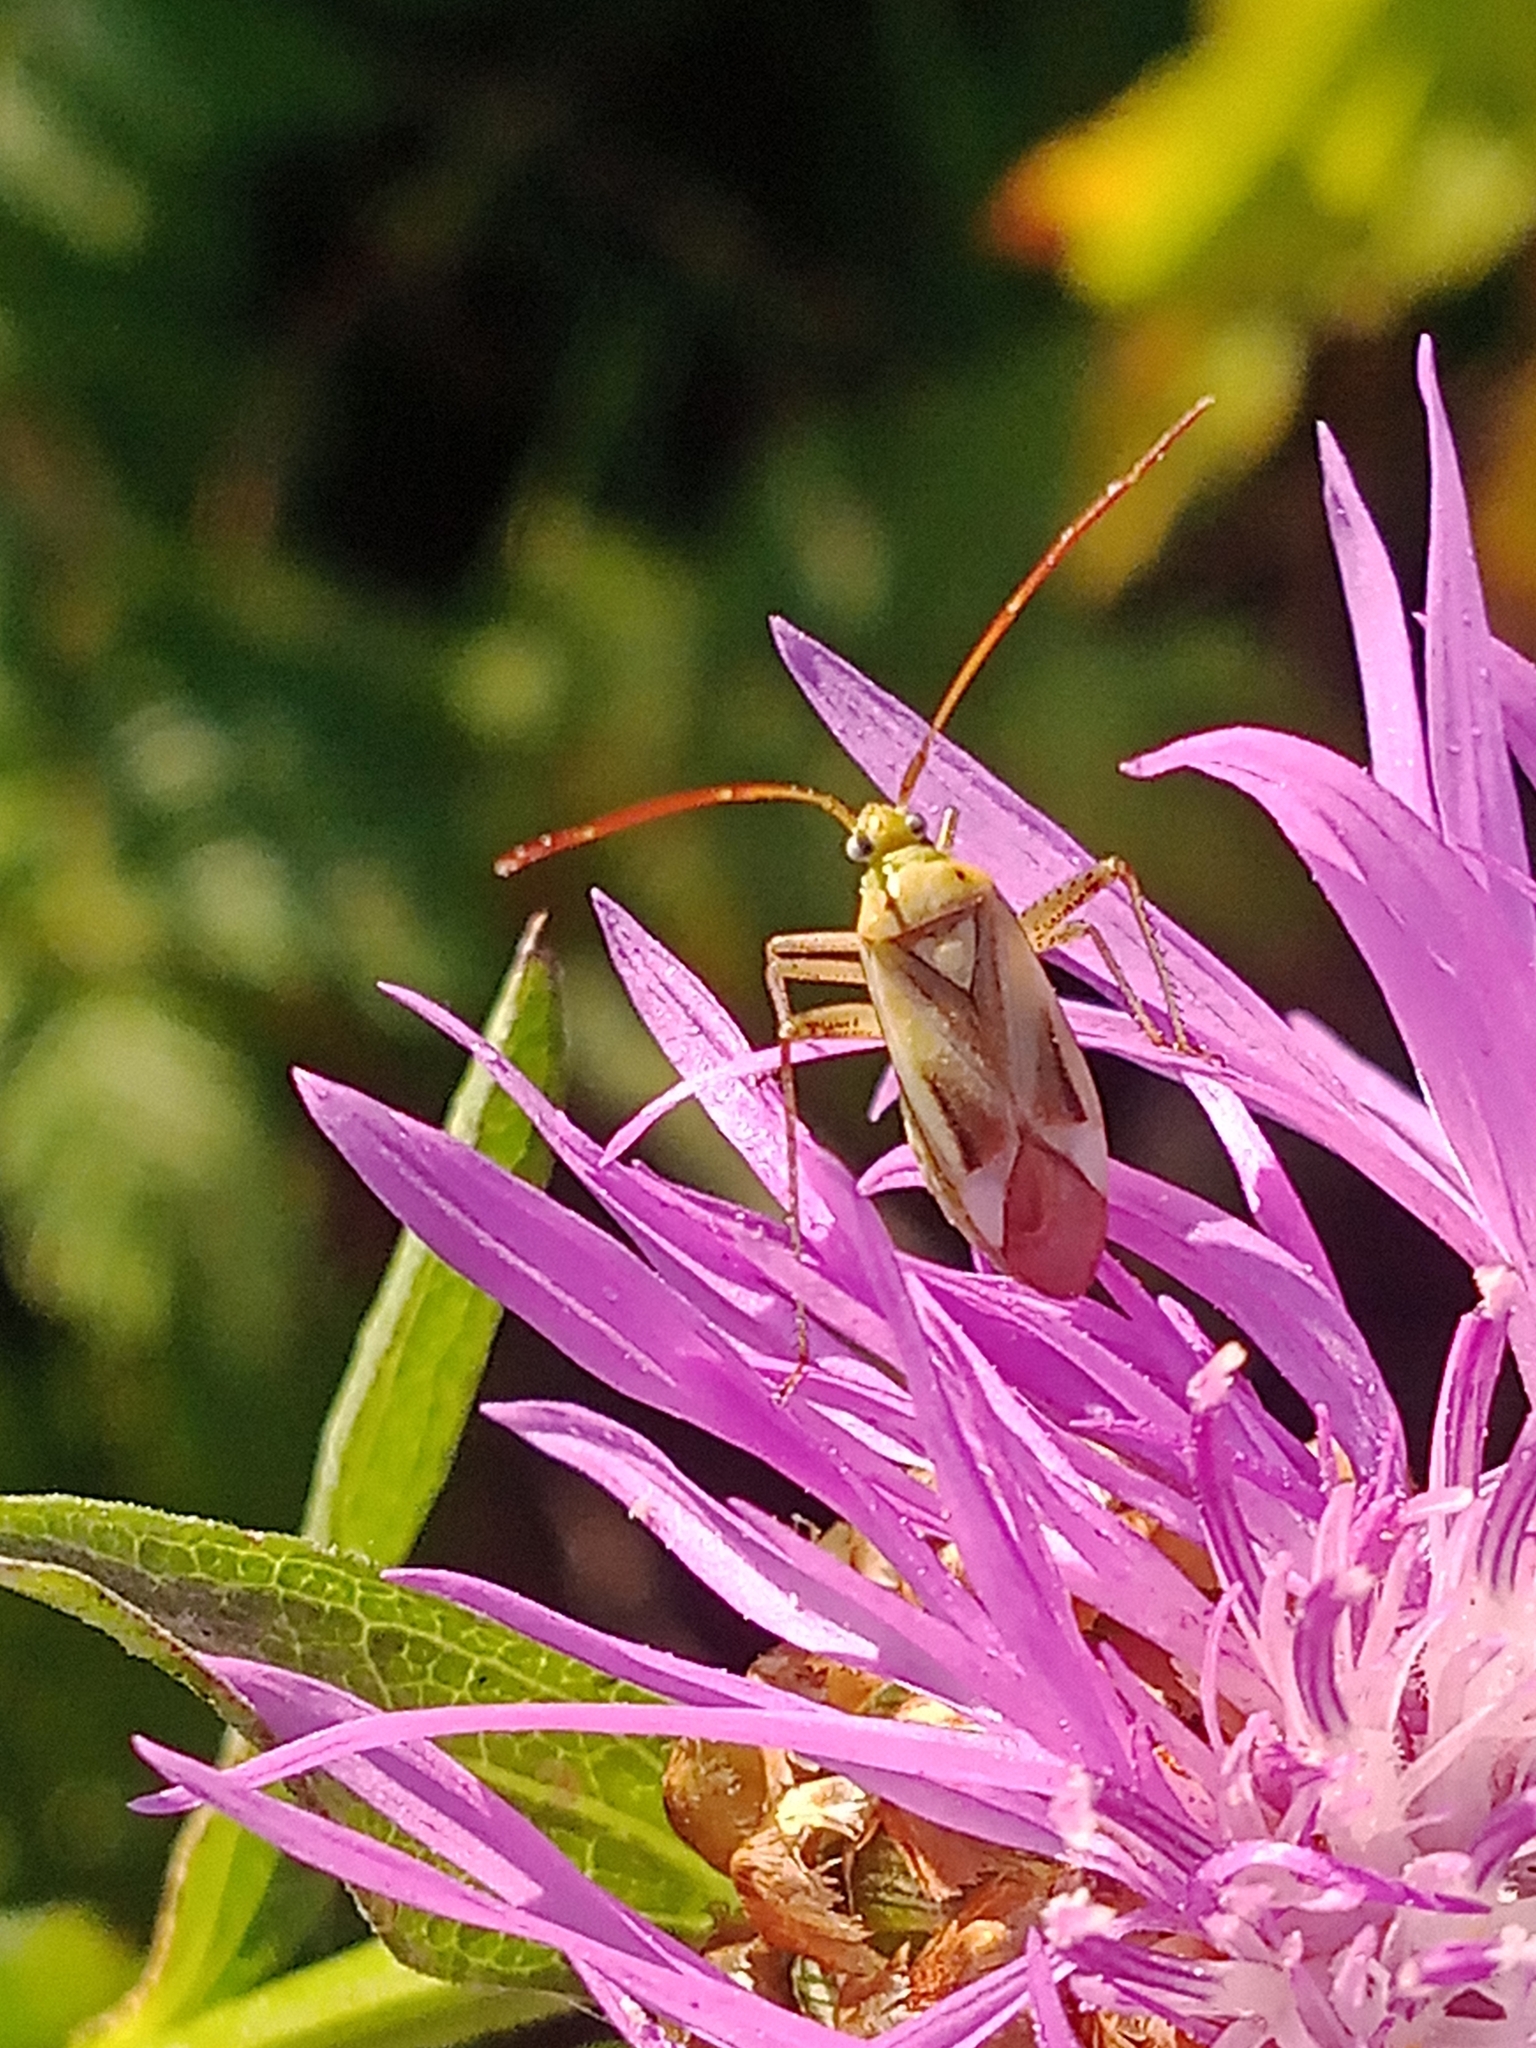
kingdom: Animalia
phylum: Arthropoda
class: Insecta
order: Hemiptera
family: Miridae
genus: Adelphocoris
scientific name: Adelphocoris lineolatus
